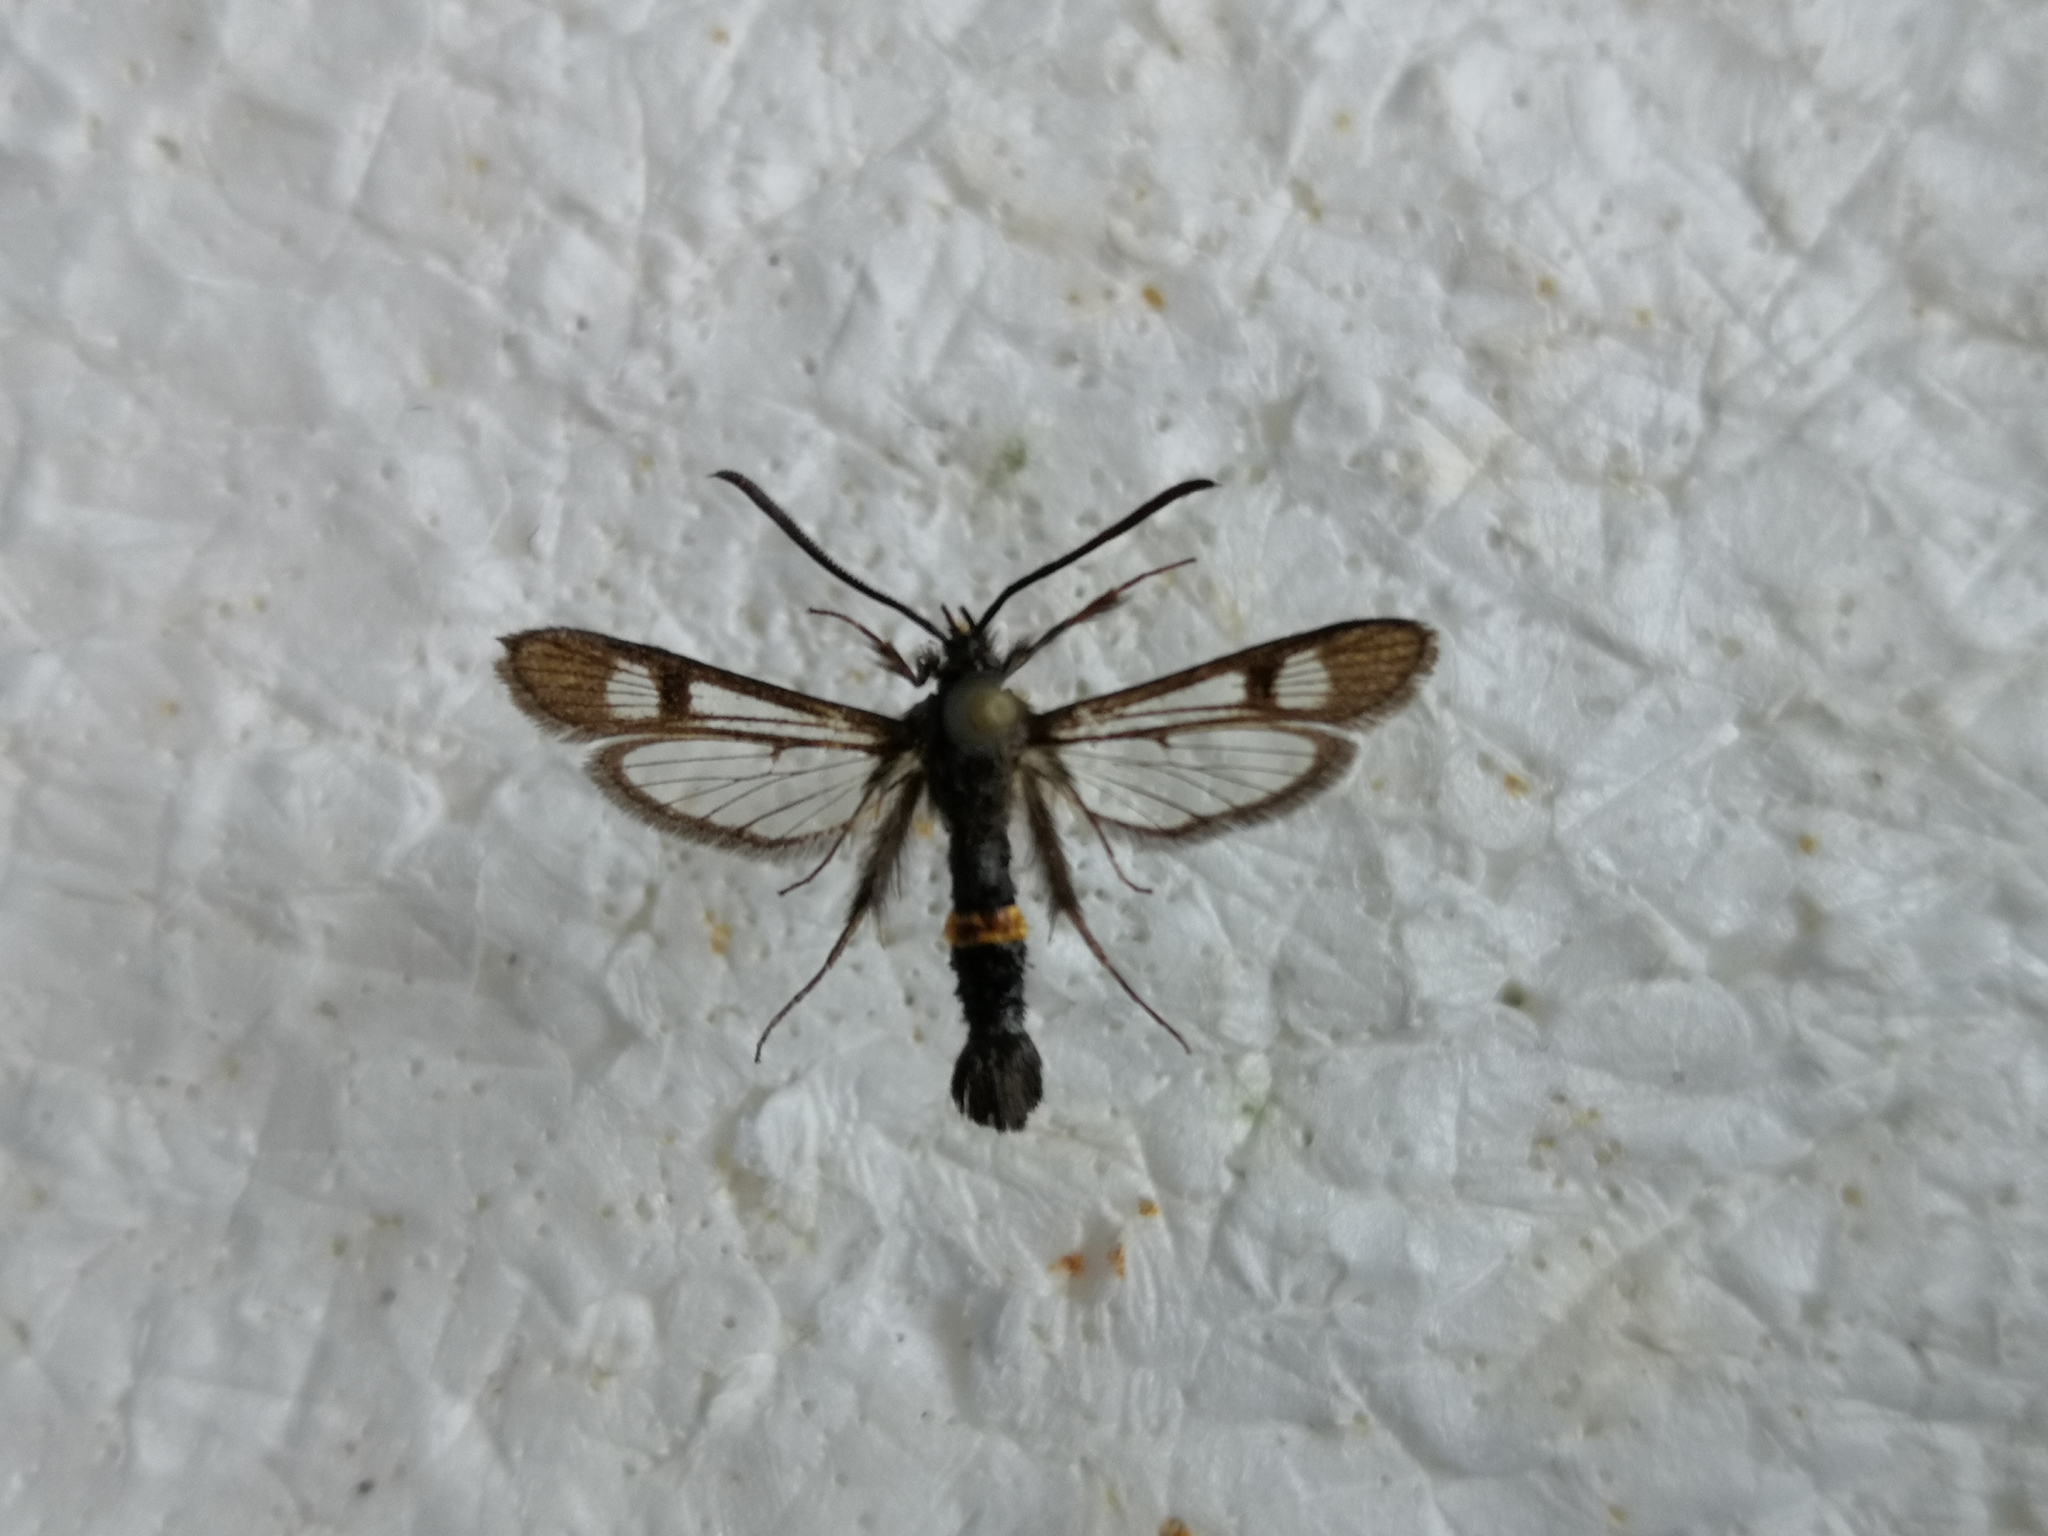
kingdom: Animalia
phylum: Arthropoda
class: Insecta
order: Lepidoptera
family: Sesiidae
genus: Synanthedon
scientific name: Synanthedon soffneri
